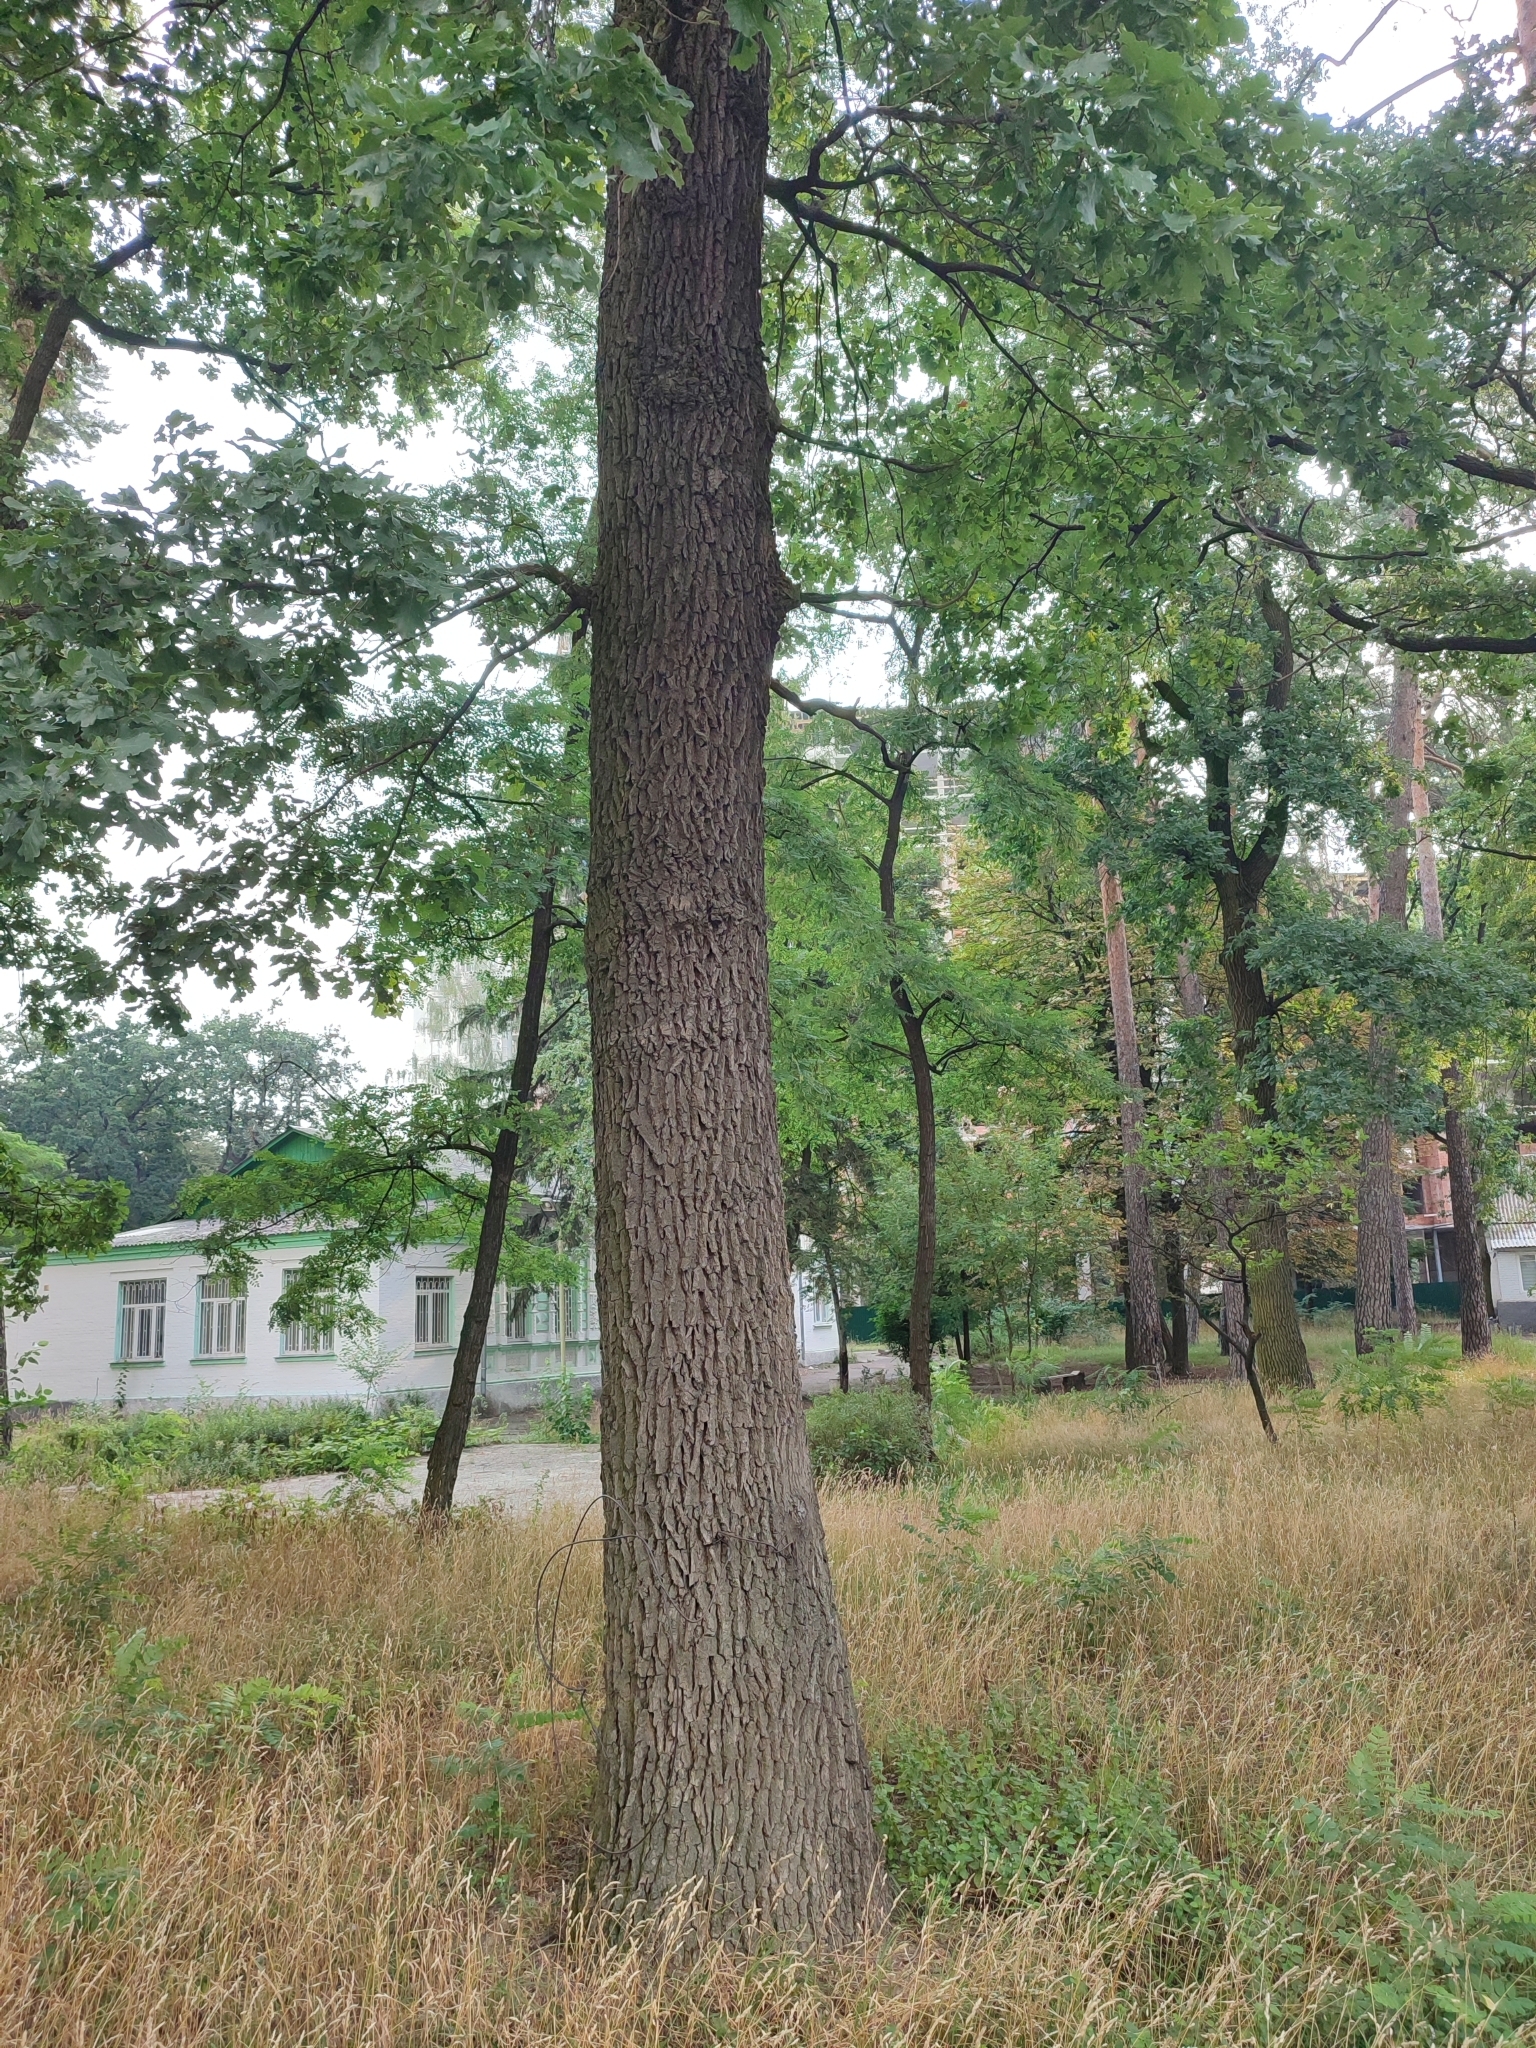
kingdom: Plantae
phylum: Tracheophyta
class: Magnoliopsida
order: Fagales
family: Fagaceae
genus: Quercus
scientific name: Quercus robur
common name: Pedunculate oak
